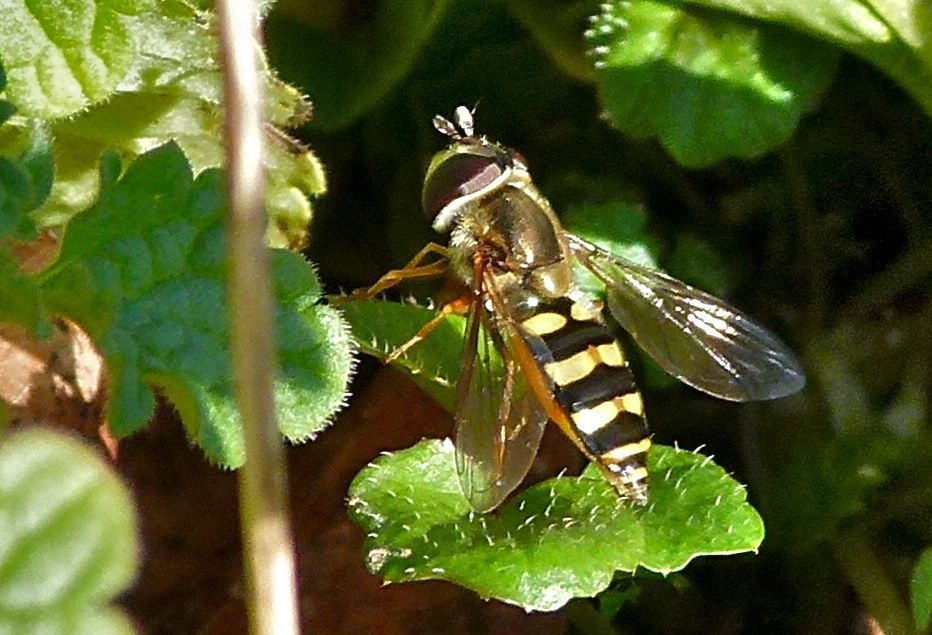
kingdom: Animalia
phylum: Arthropoda
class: Insecta
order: Diptera
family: Syrphidae
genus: Eupeodes
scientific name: Eupeodes
